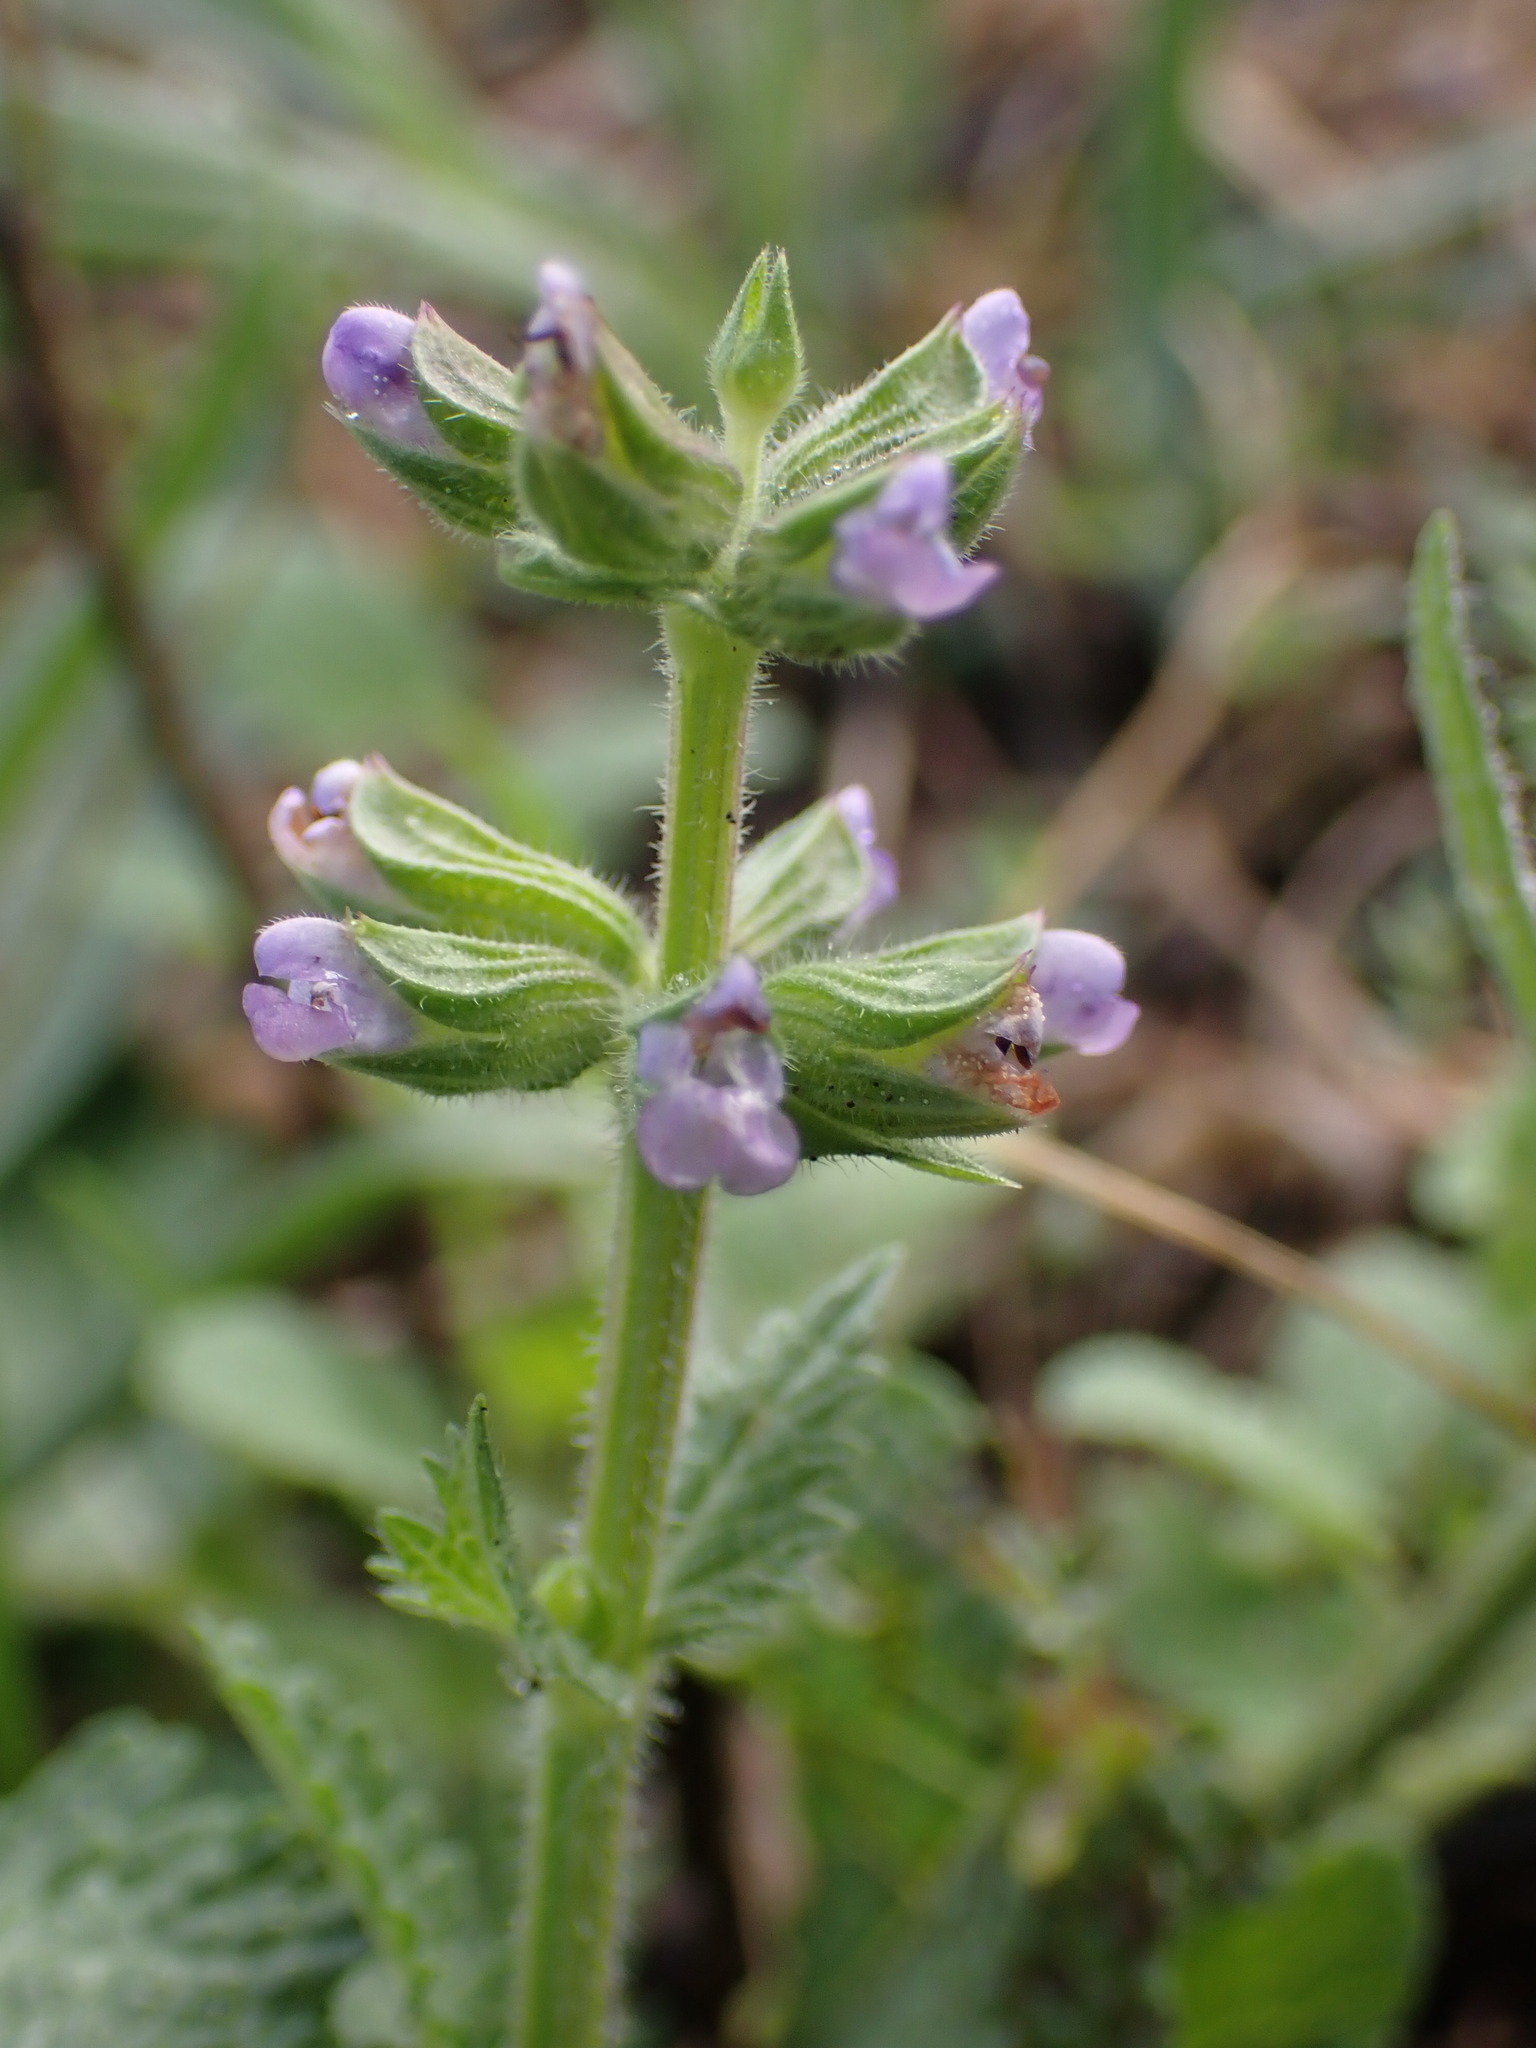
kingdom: Plantae
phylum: Tracheophyta
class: Magnoliopsida
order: Lamiales
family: Lamiaceae
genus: Salvia
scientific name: Salvia verbenaca
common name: Wild clary
